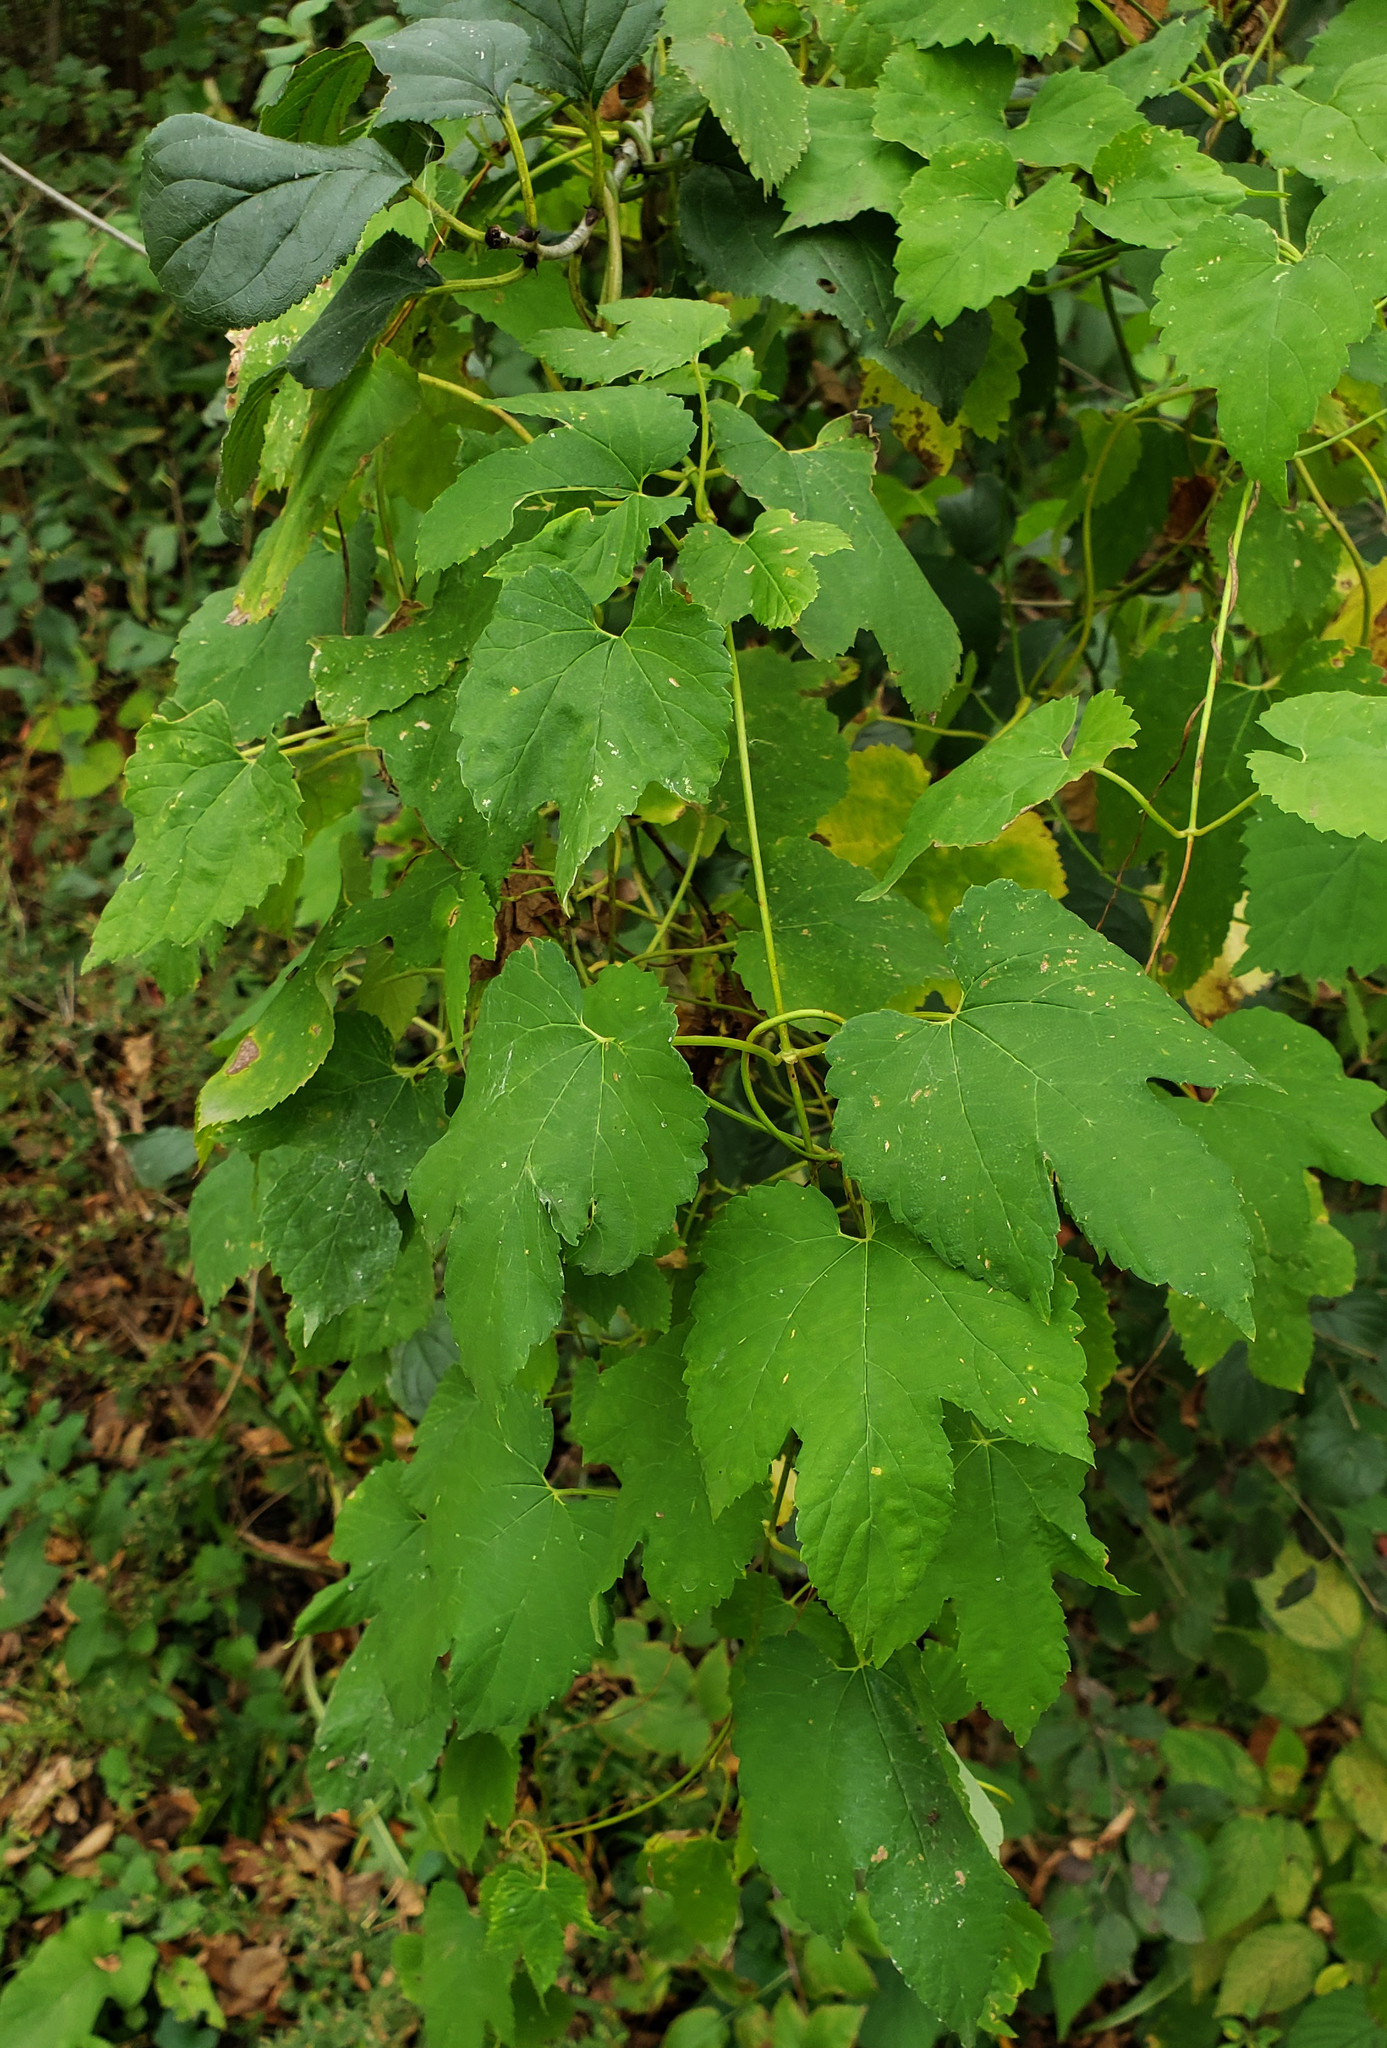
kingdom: Plantae
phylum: Tracheophyta
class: Magnoliopsida
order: Rosales
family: Cannabaceae
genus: Humulus
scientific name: Humulus lupulus
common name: Hop
